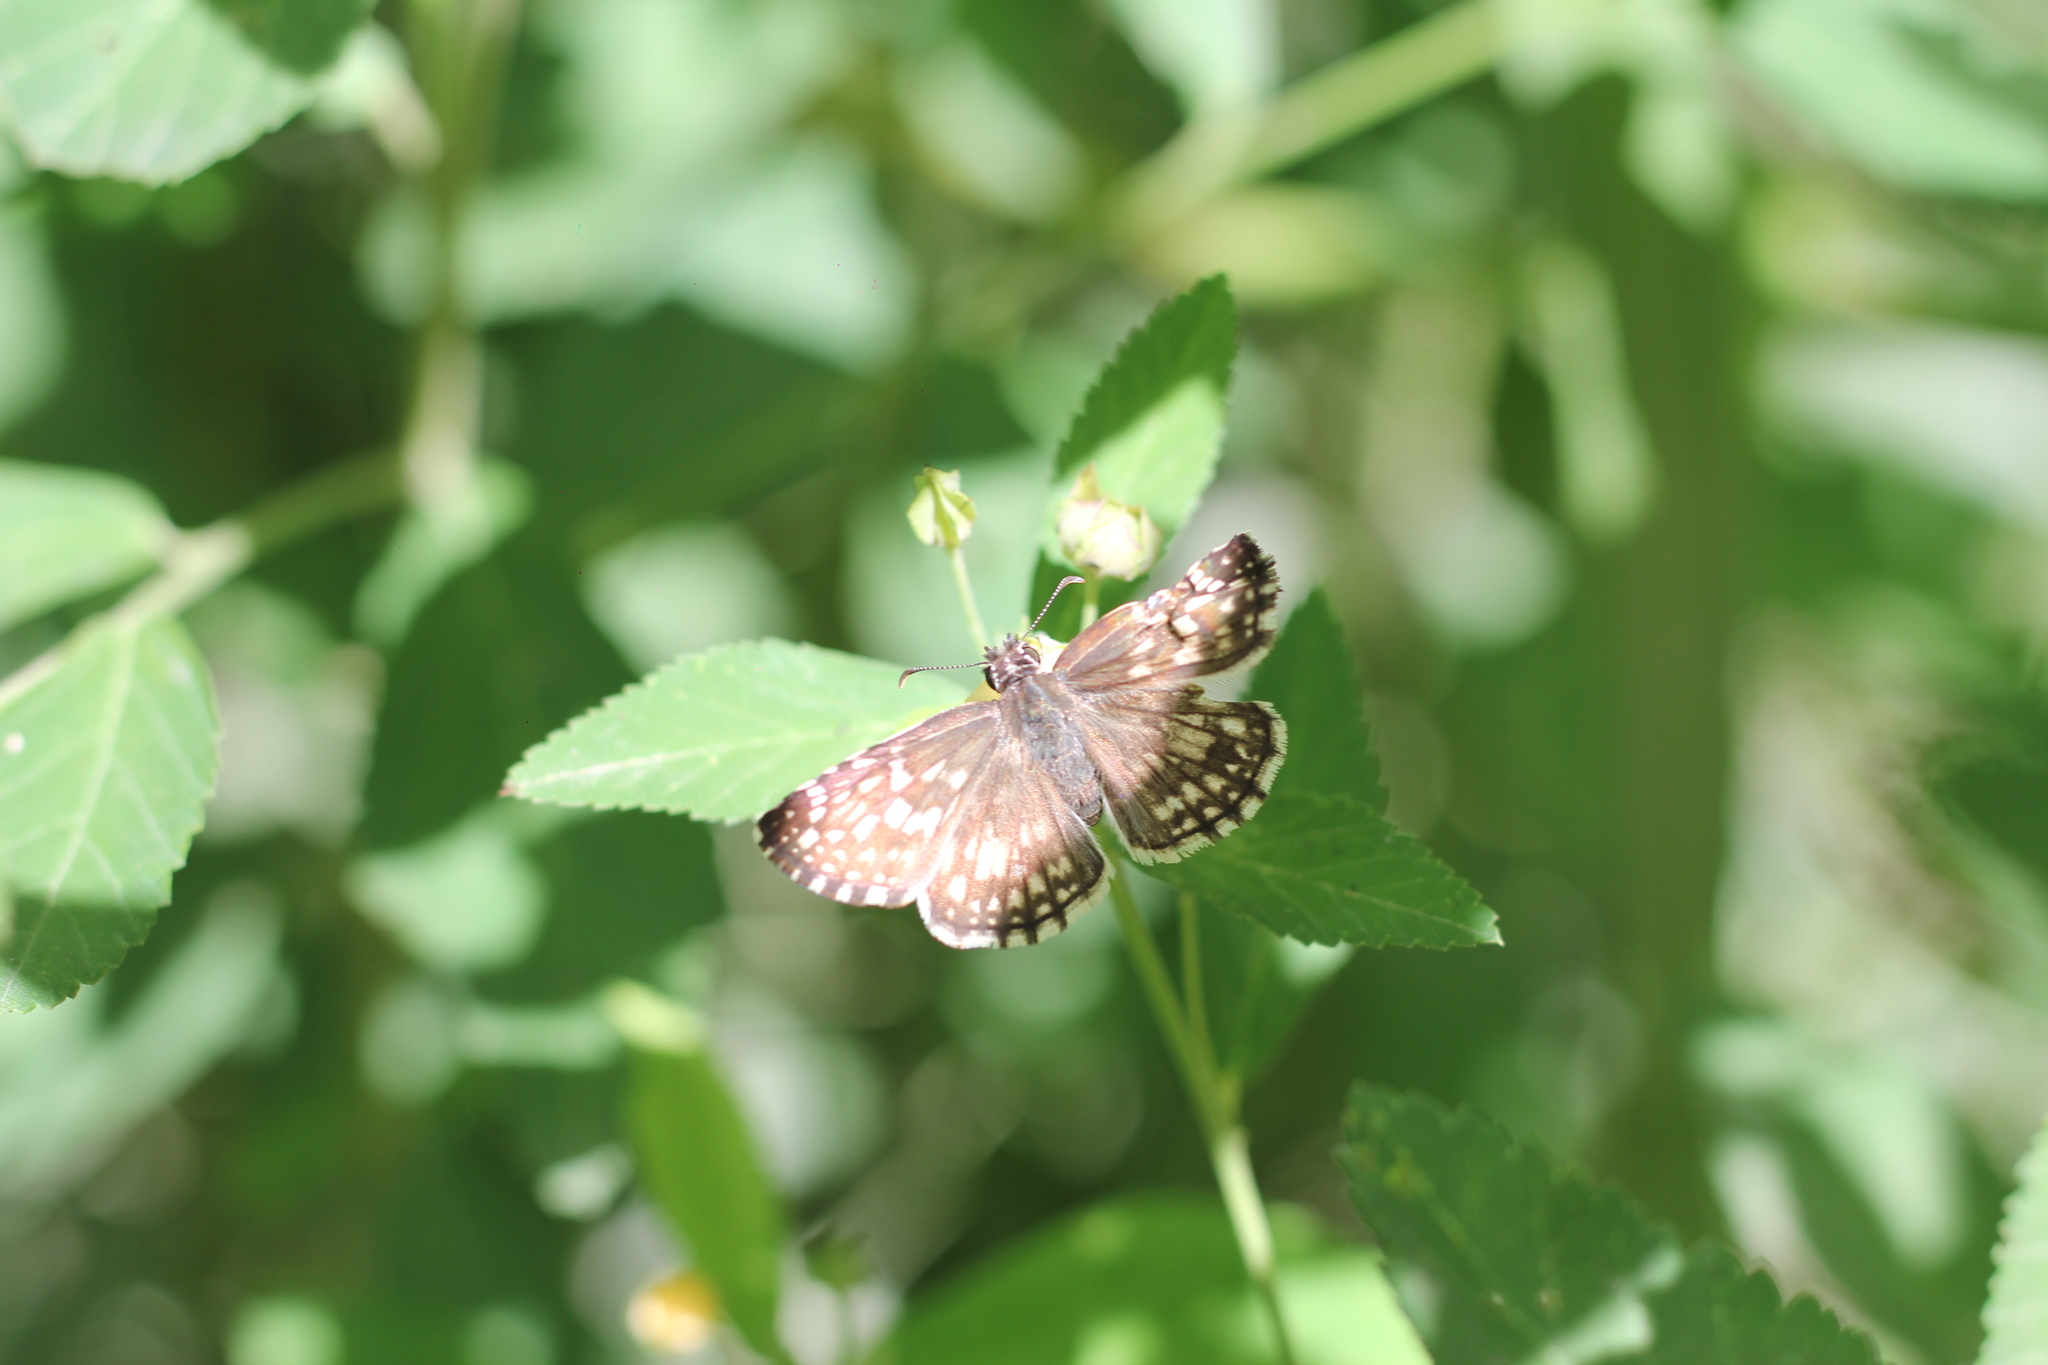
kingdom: Animalia
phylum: Arthropoda
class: Insecta
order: Lepidoptera
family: Hesperiidae
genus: Pyrgus
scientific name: Pyrgus oileus
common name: Tropical checkered-skipper
